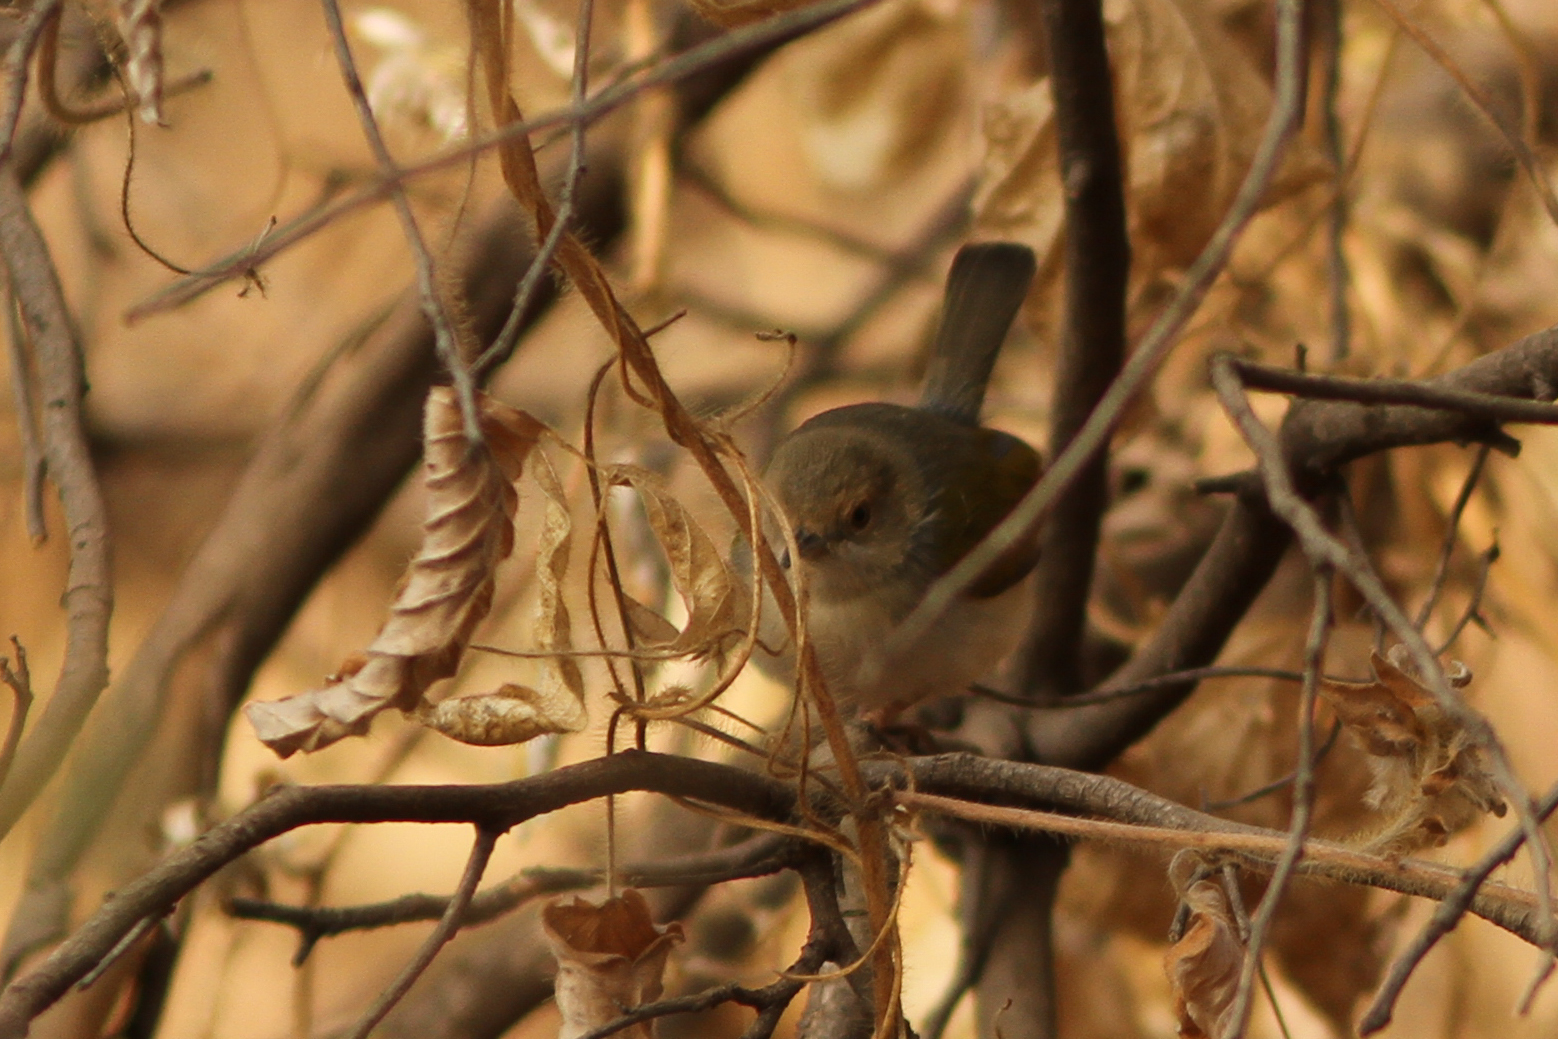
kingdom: Animalia
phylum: Chordata
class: Aves
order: Passeriformes
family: Cisticolidae
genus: Camaroptera
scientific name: Camaroptera brachyura
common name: Green-backed camaroptera
